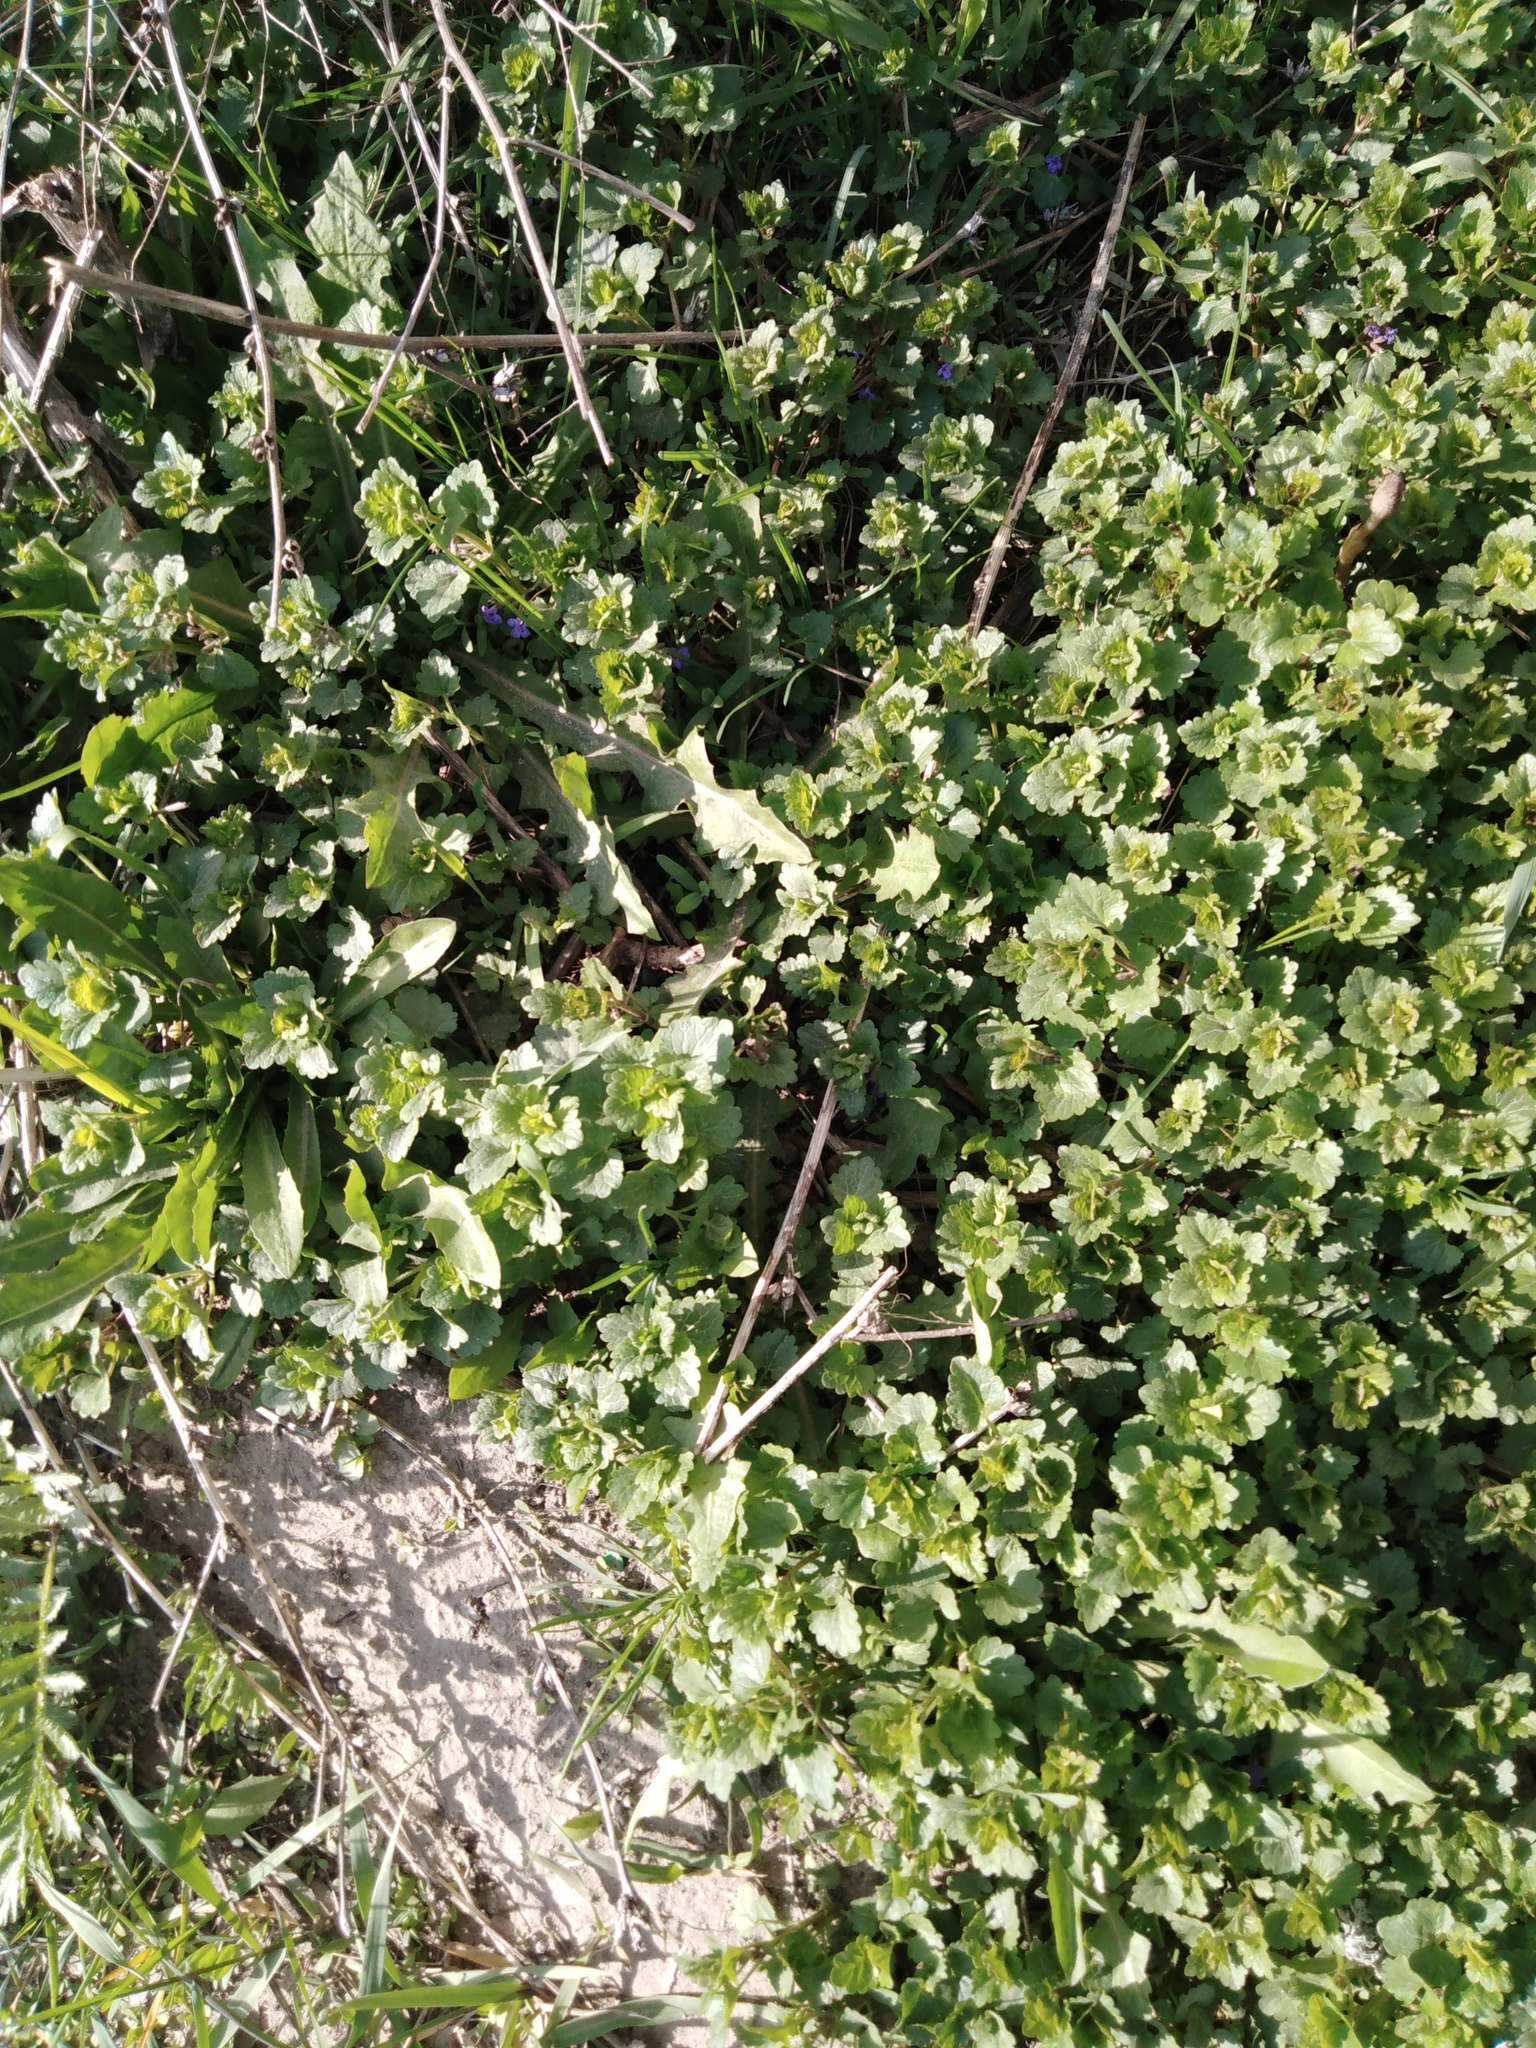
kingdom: Plantae
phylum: Tracheophyta
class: Magnoliopsida
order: Lamiales
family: Lamiaceae
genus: Glechoma
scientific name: Glechoma hederacea
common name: Ground ivy
